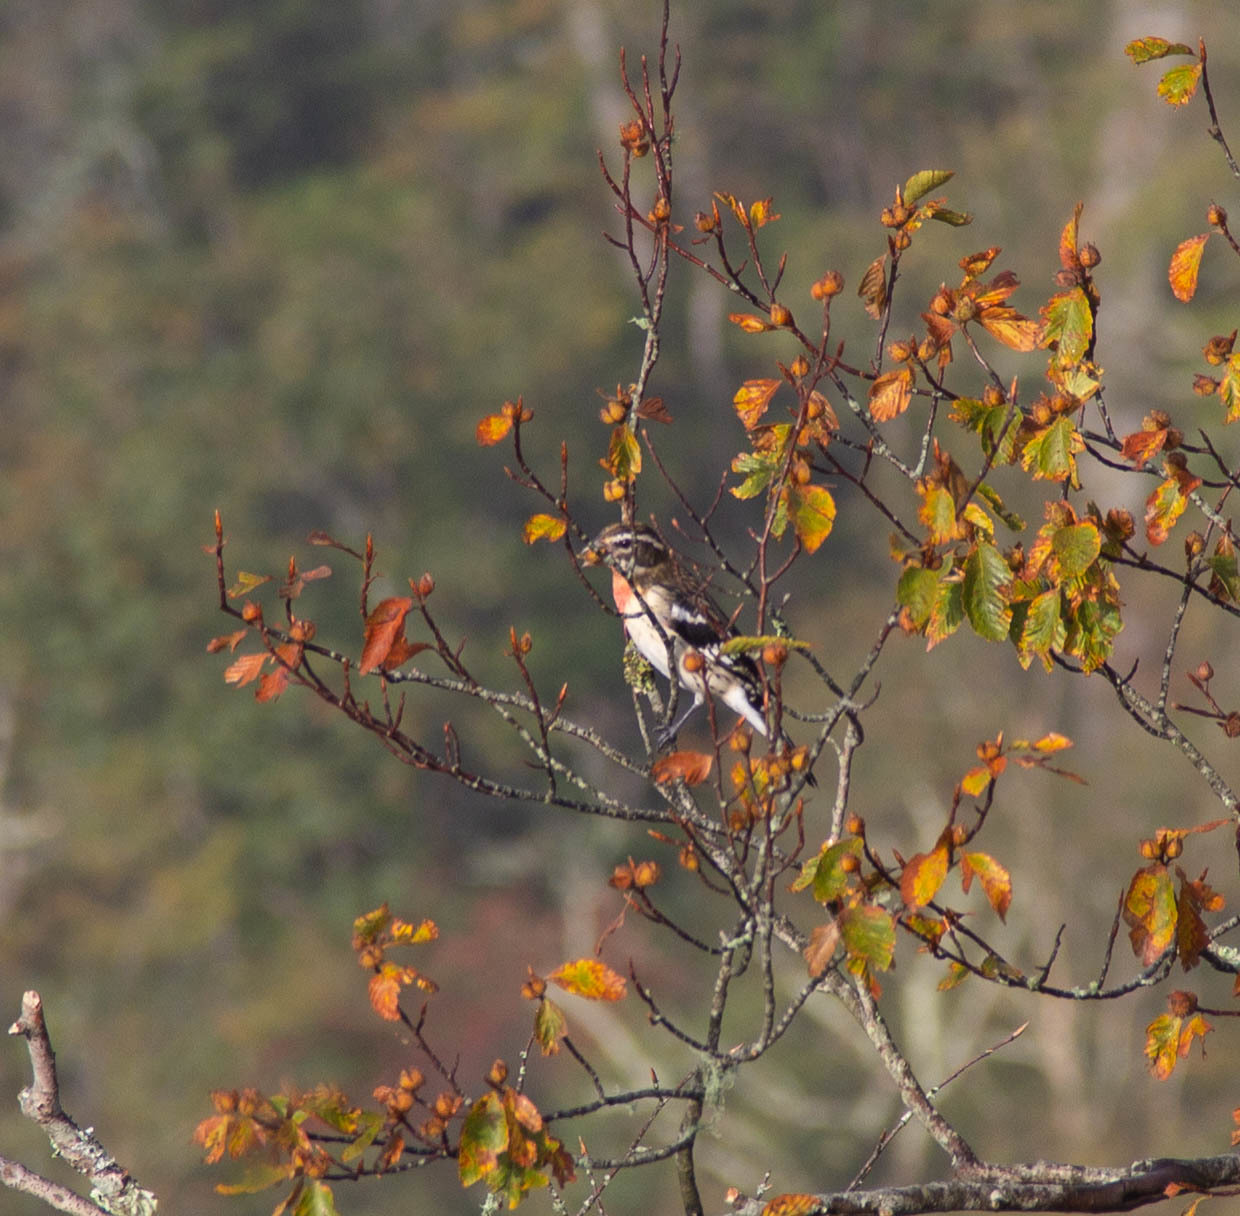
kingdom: Animalia
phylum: Chordata
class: Aves
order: Passeriformes
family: Cardinalidae
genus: Pheucticus
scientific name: Pheucticus ludovicianus
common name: Rose-breasted grosbeak
